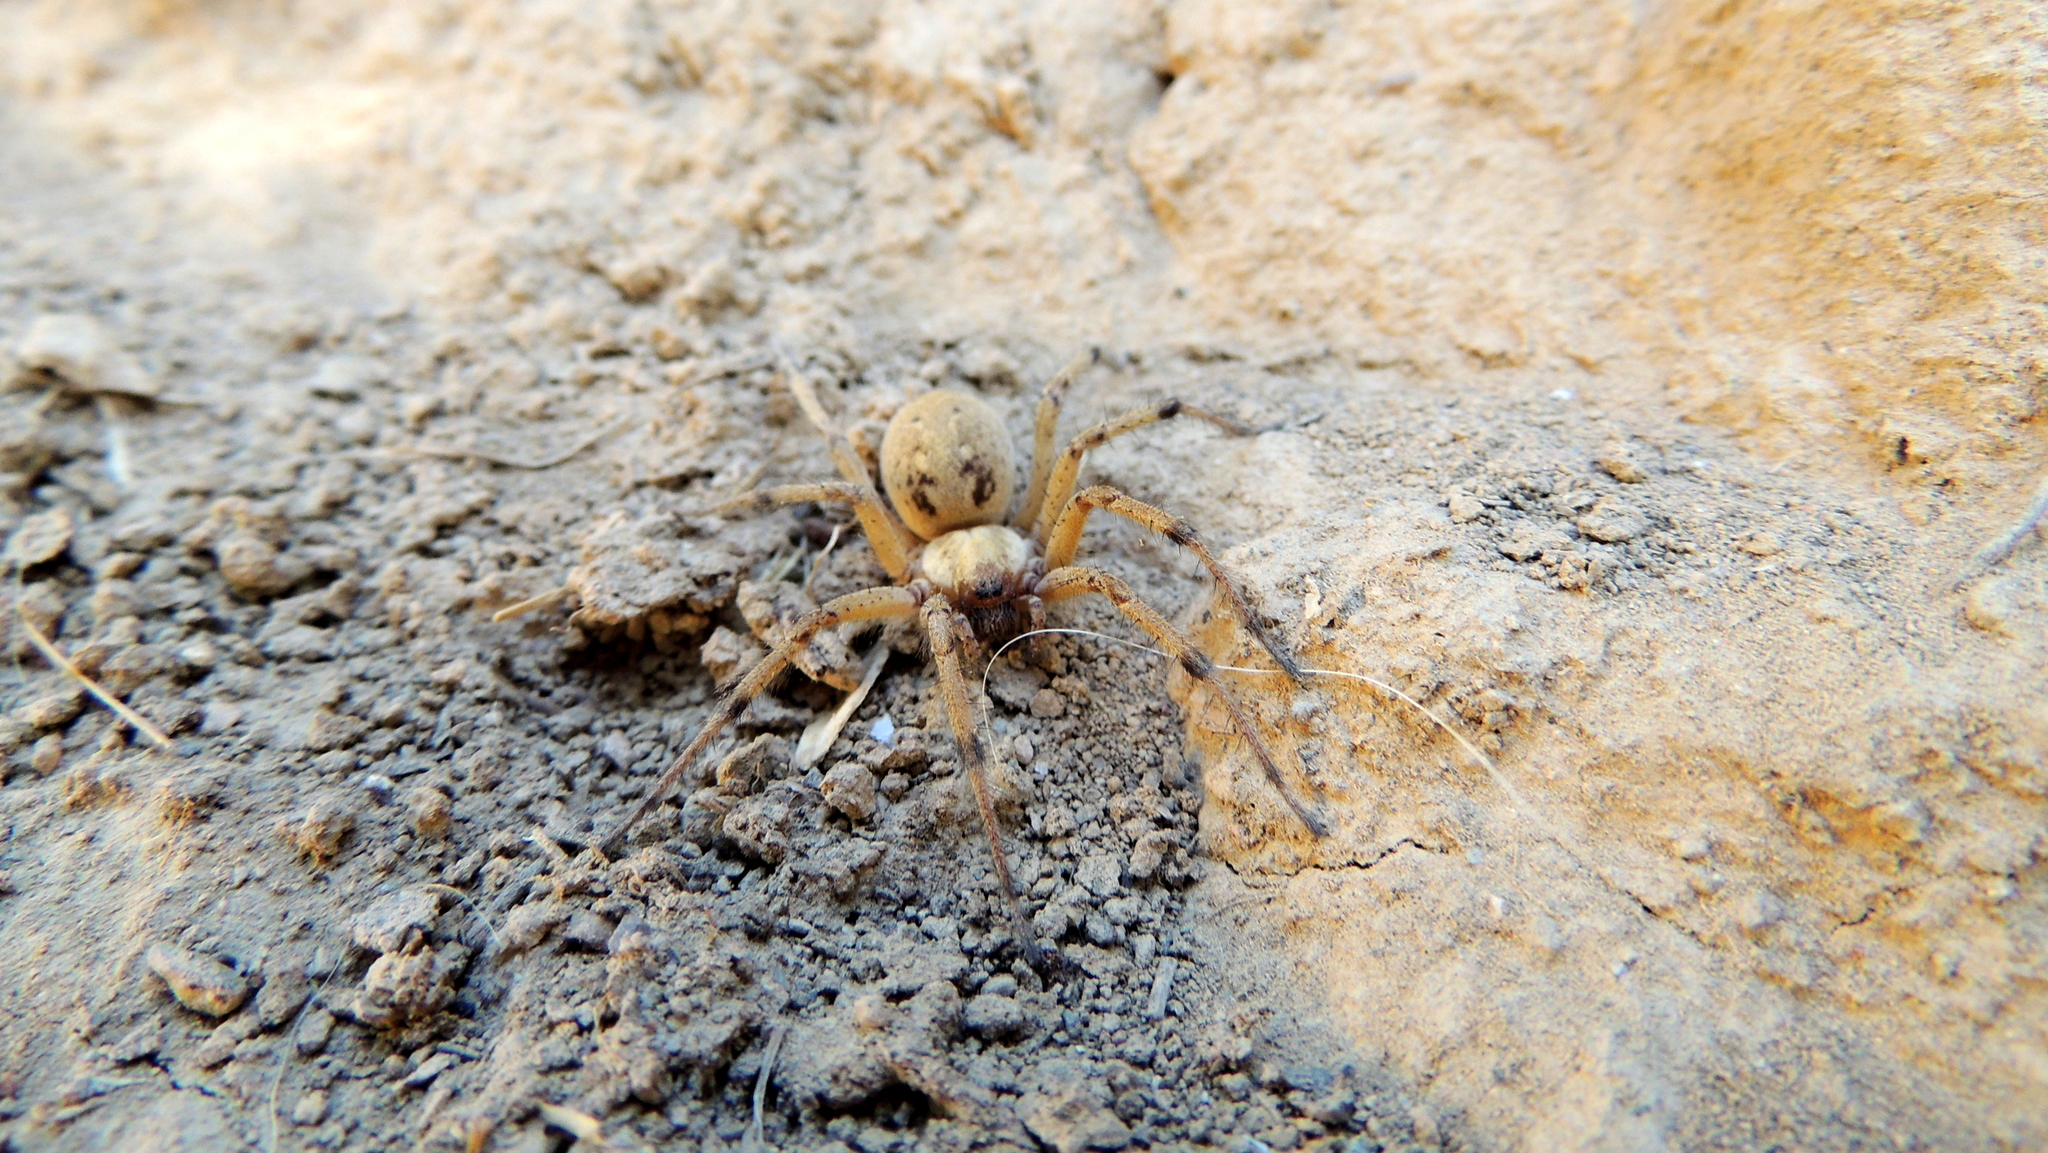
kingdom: Animalia
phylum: Arthropoda
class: Arachnida
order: Araneae
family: Agelenidae
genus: Agelena
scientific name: Agelena orientalis
